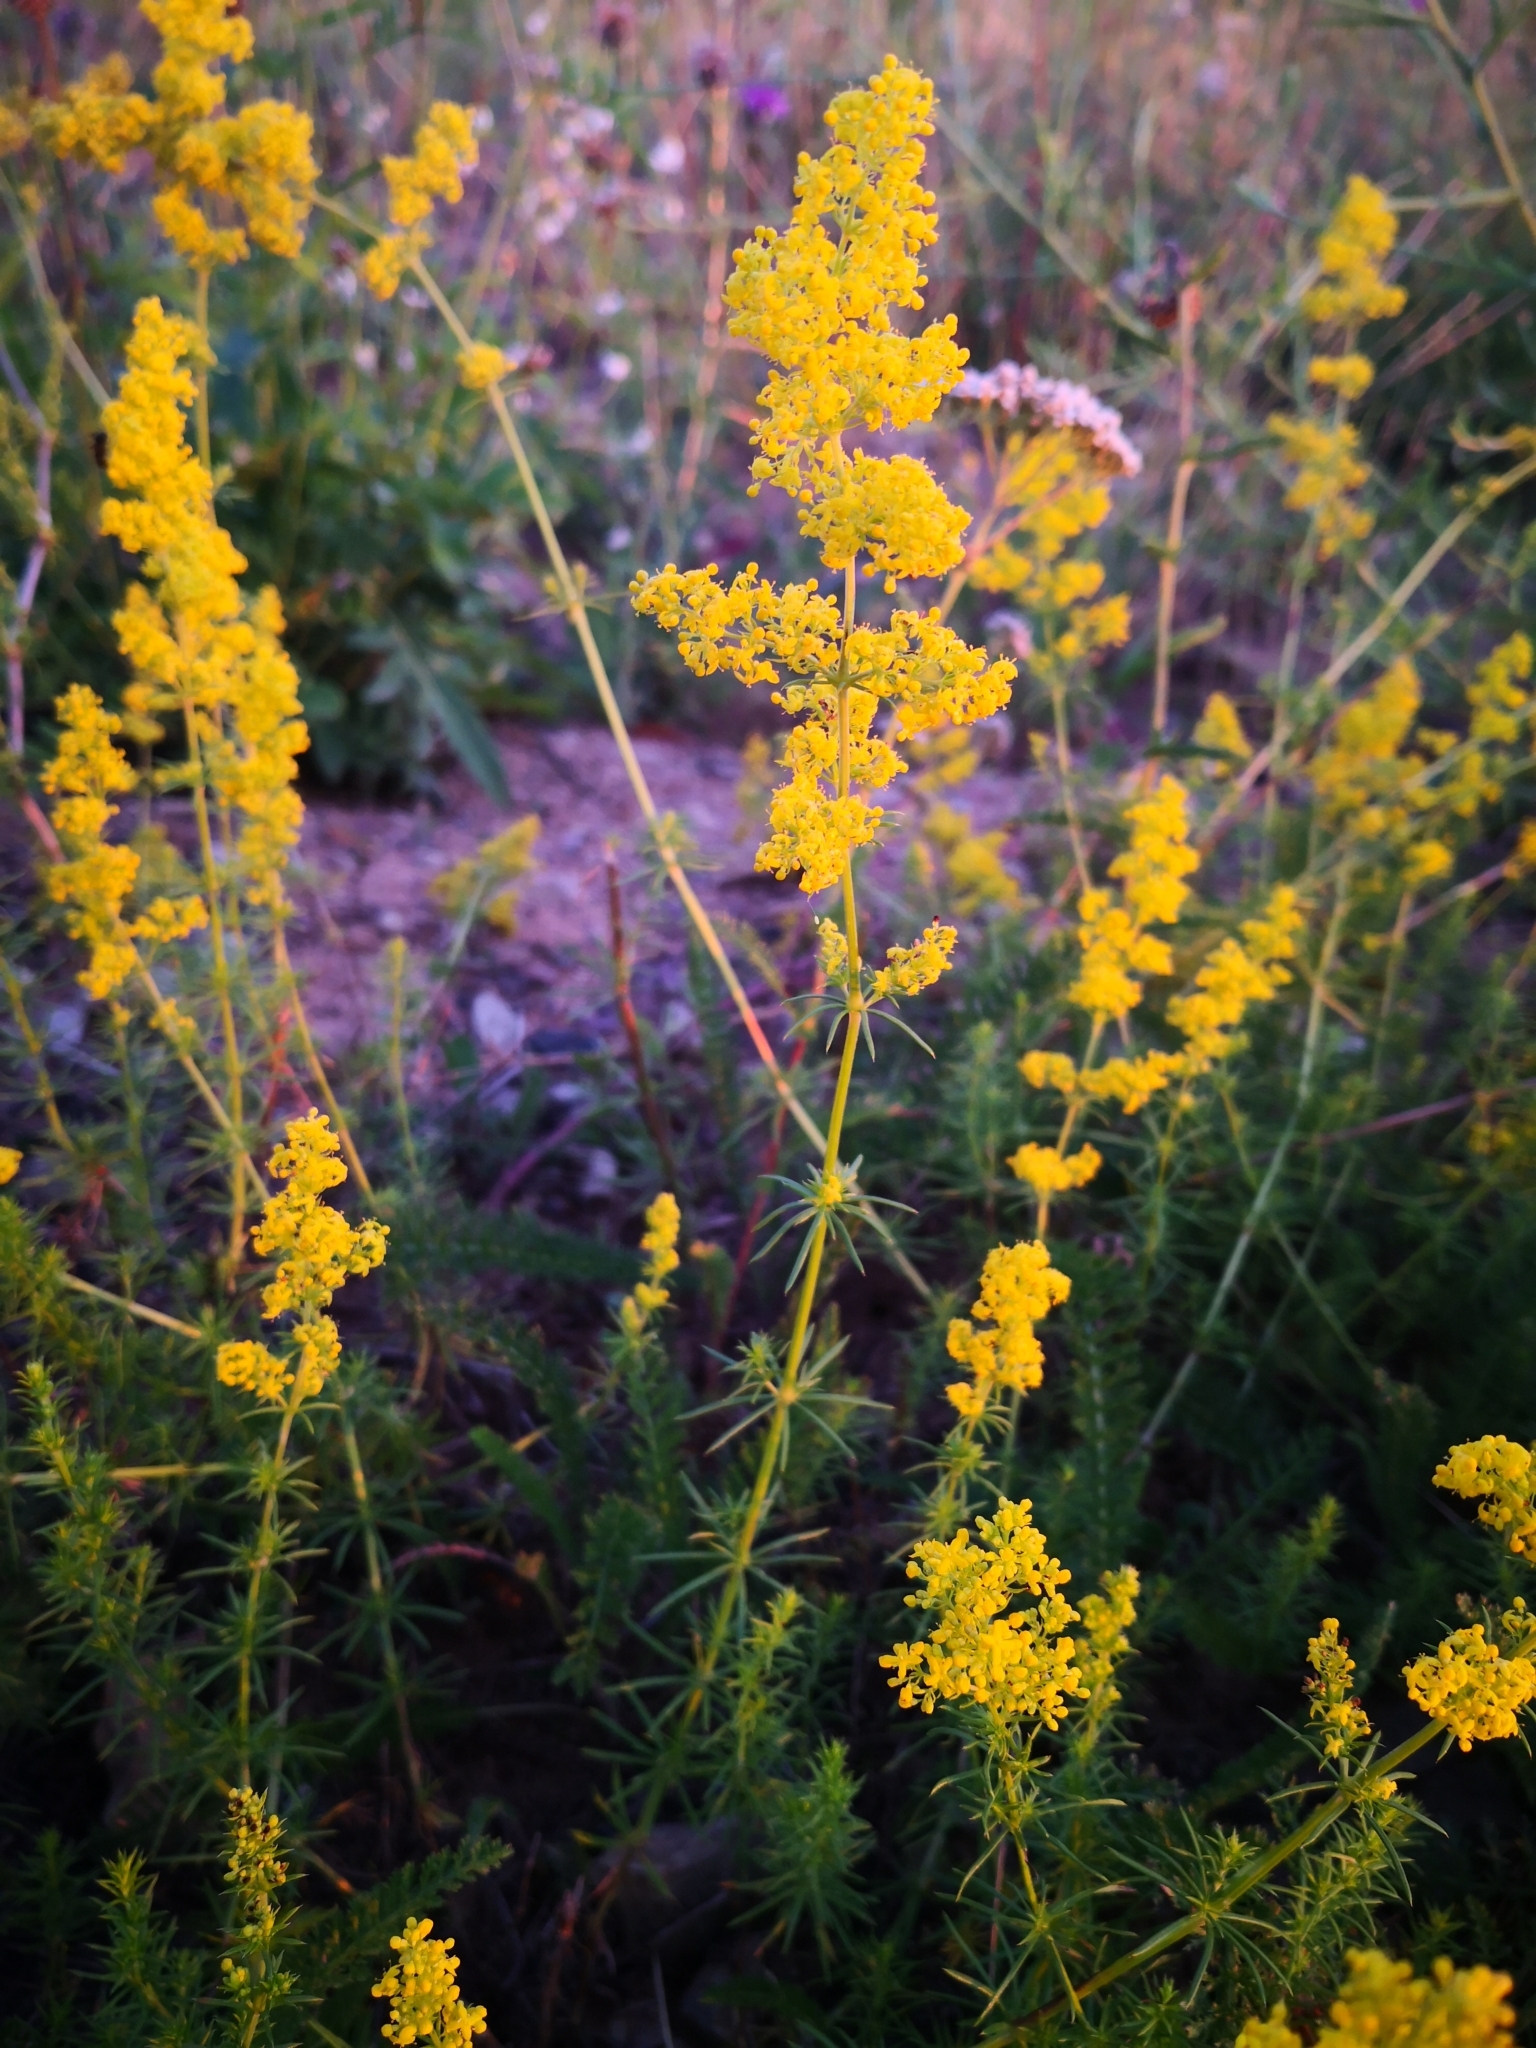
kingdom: Plantae
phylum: Tracheophyta
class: Magnoliopsida
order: Gentianales
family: Rubiaceae
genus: Galium
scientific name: Galium verum
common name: Lady's bedstraw
